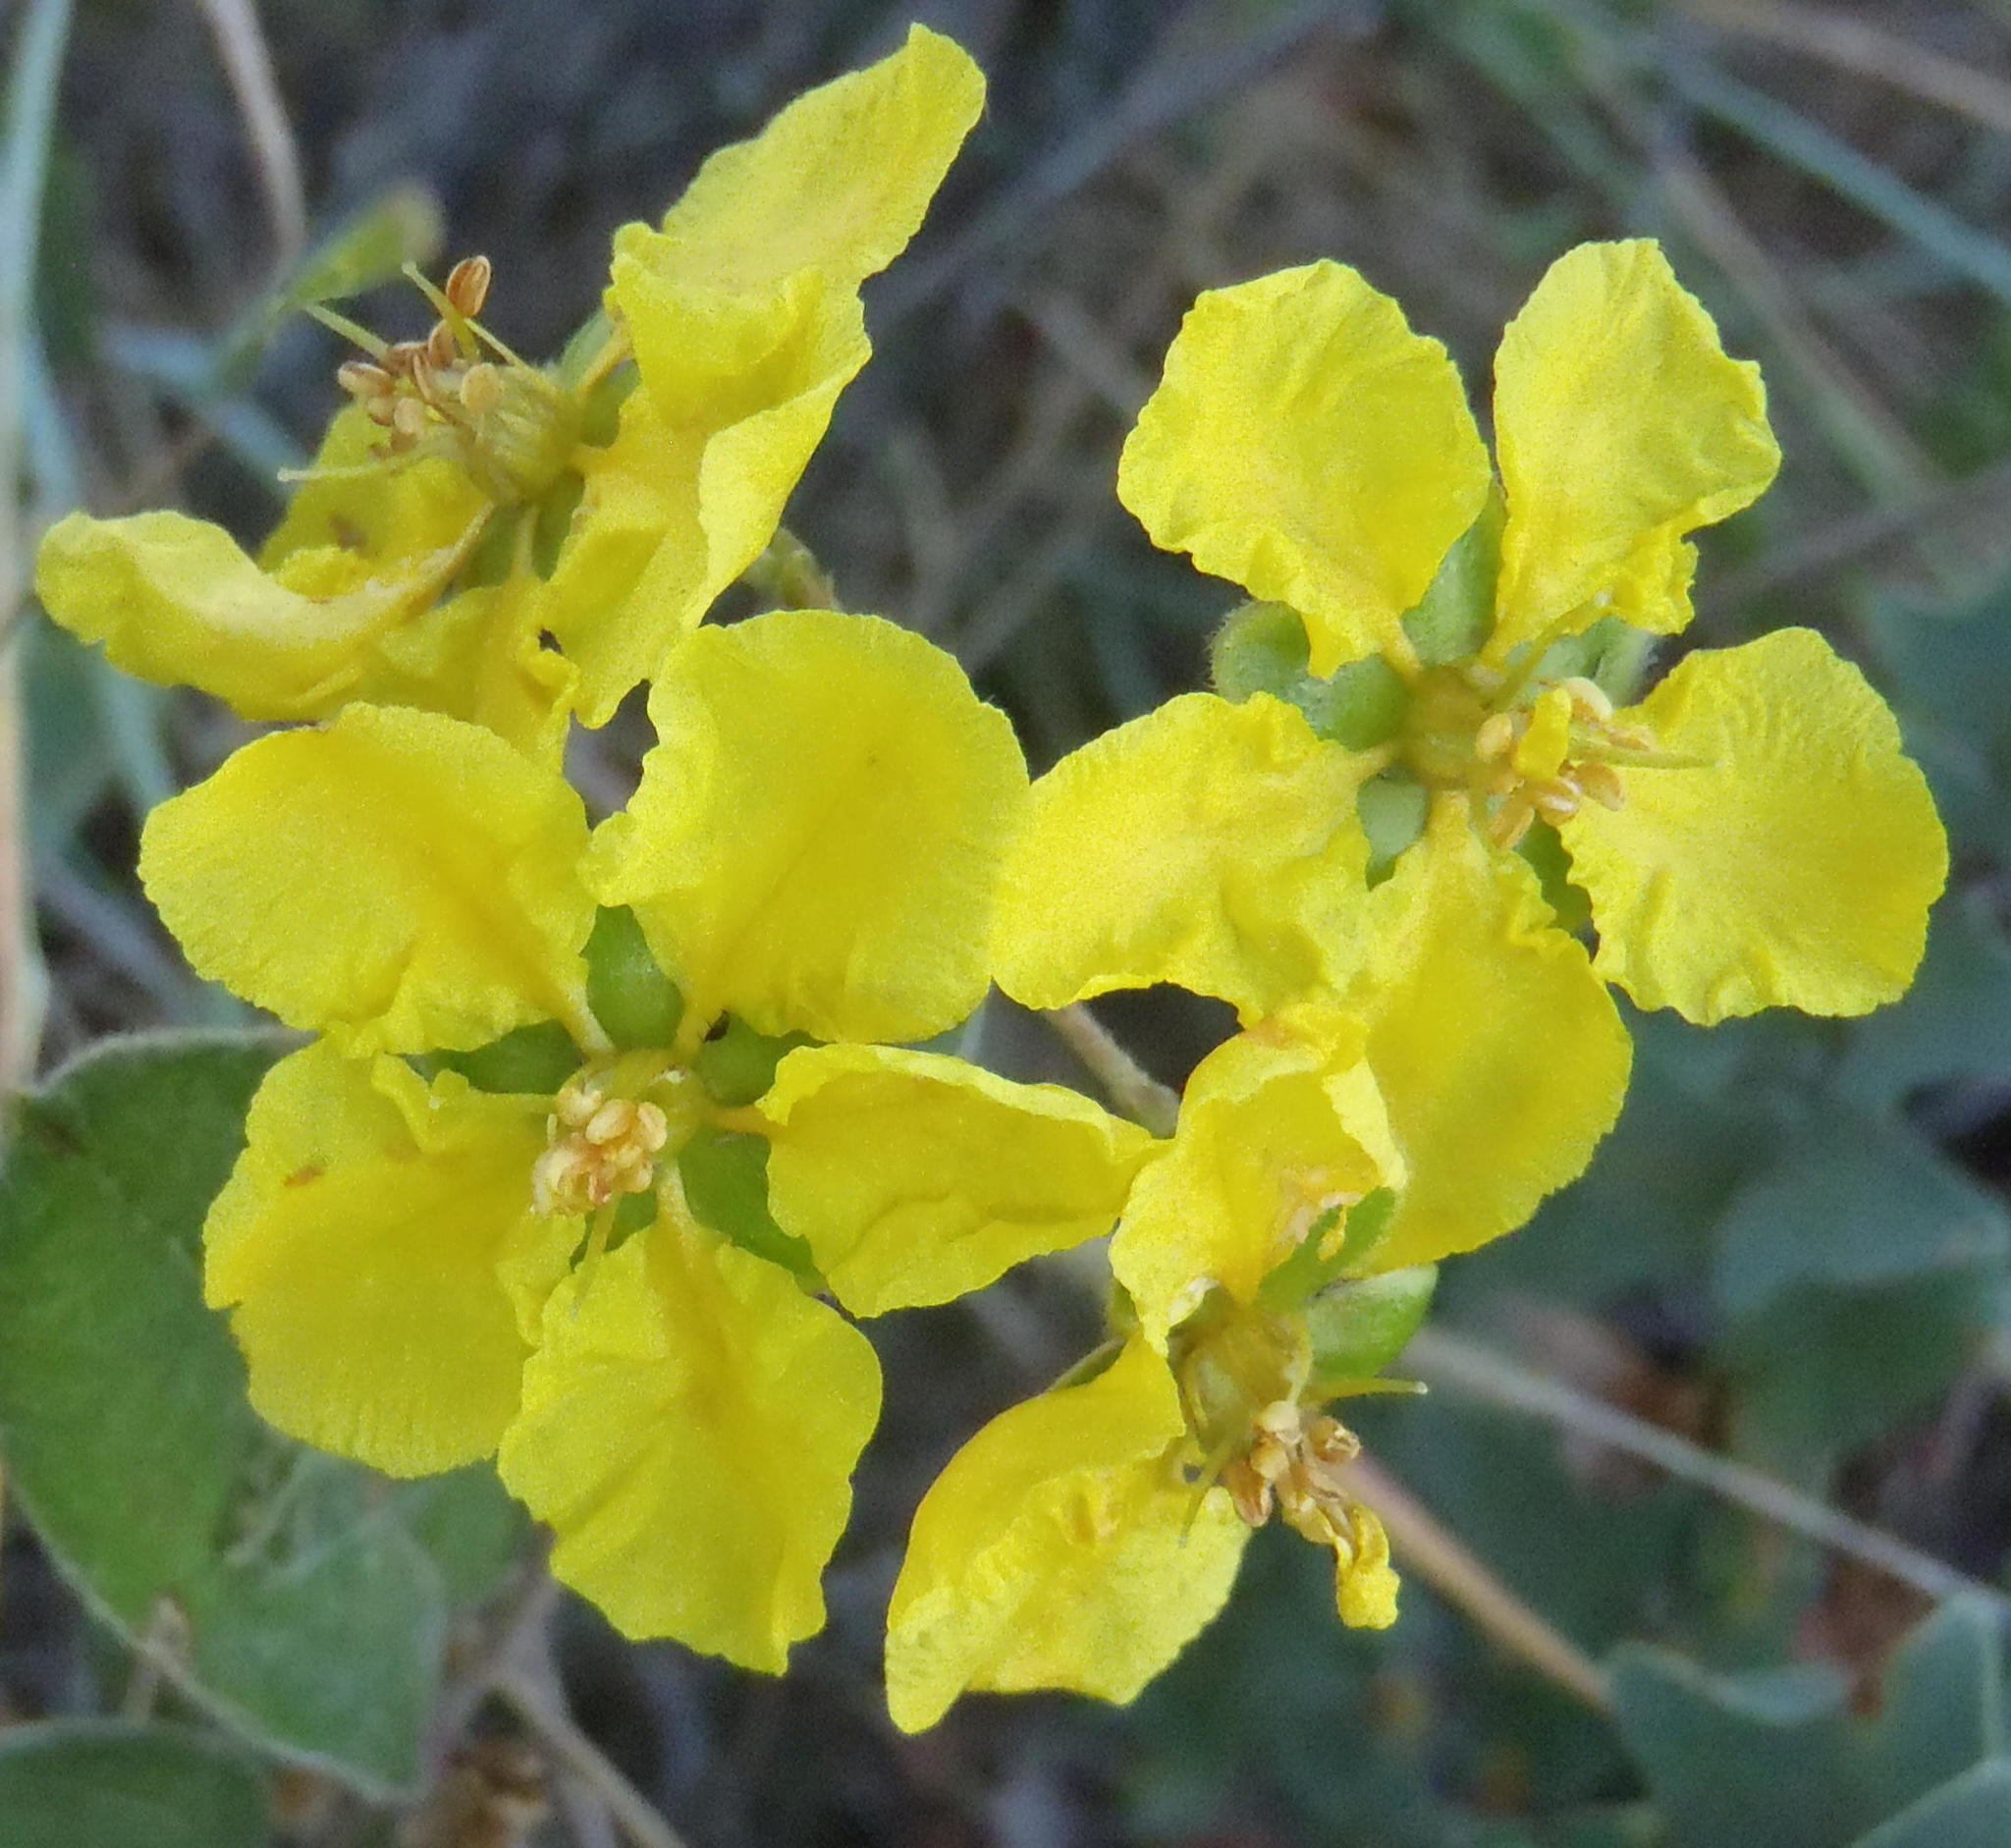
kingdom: Plantae
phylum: Tracheophyta
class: Magnoliopsida
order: Malpighiales
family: Malpighiaceae
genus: Sphedamnocarpus
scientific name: Sphedamnocarpus pruriens
